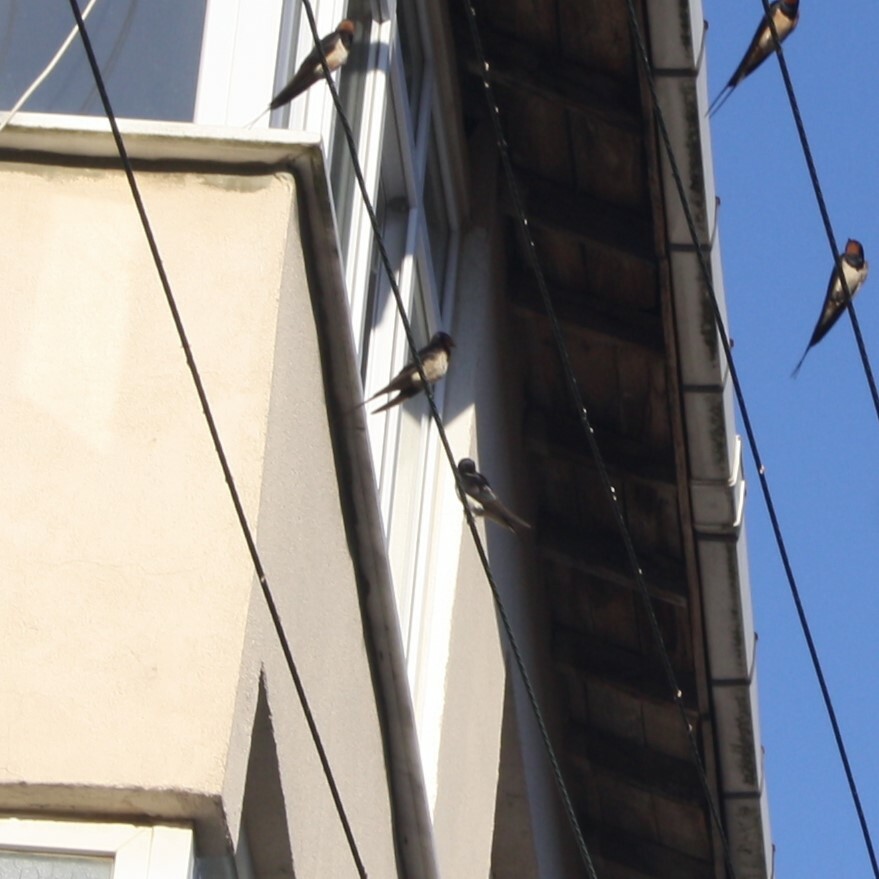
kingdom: Animalia
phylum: Chordata
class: Aves
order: Passeriformes
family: Hirundinidae
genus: Hirundo
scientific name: Hirundo rustica
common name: Barn swallow
